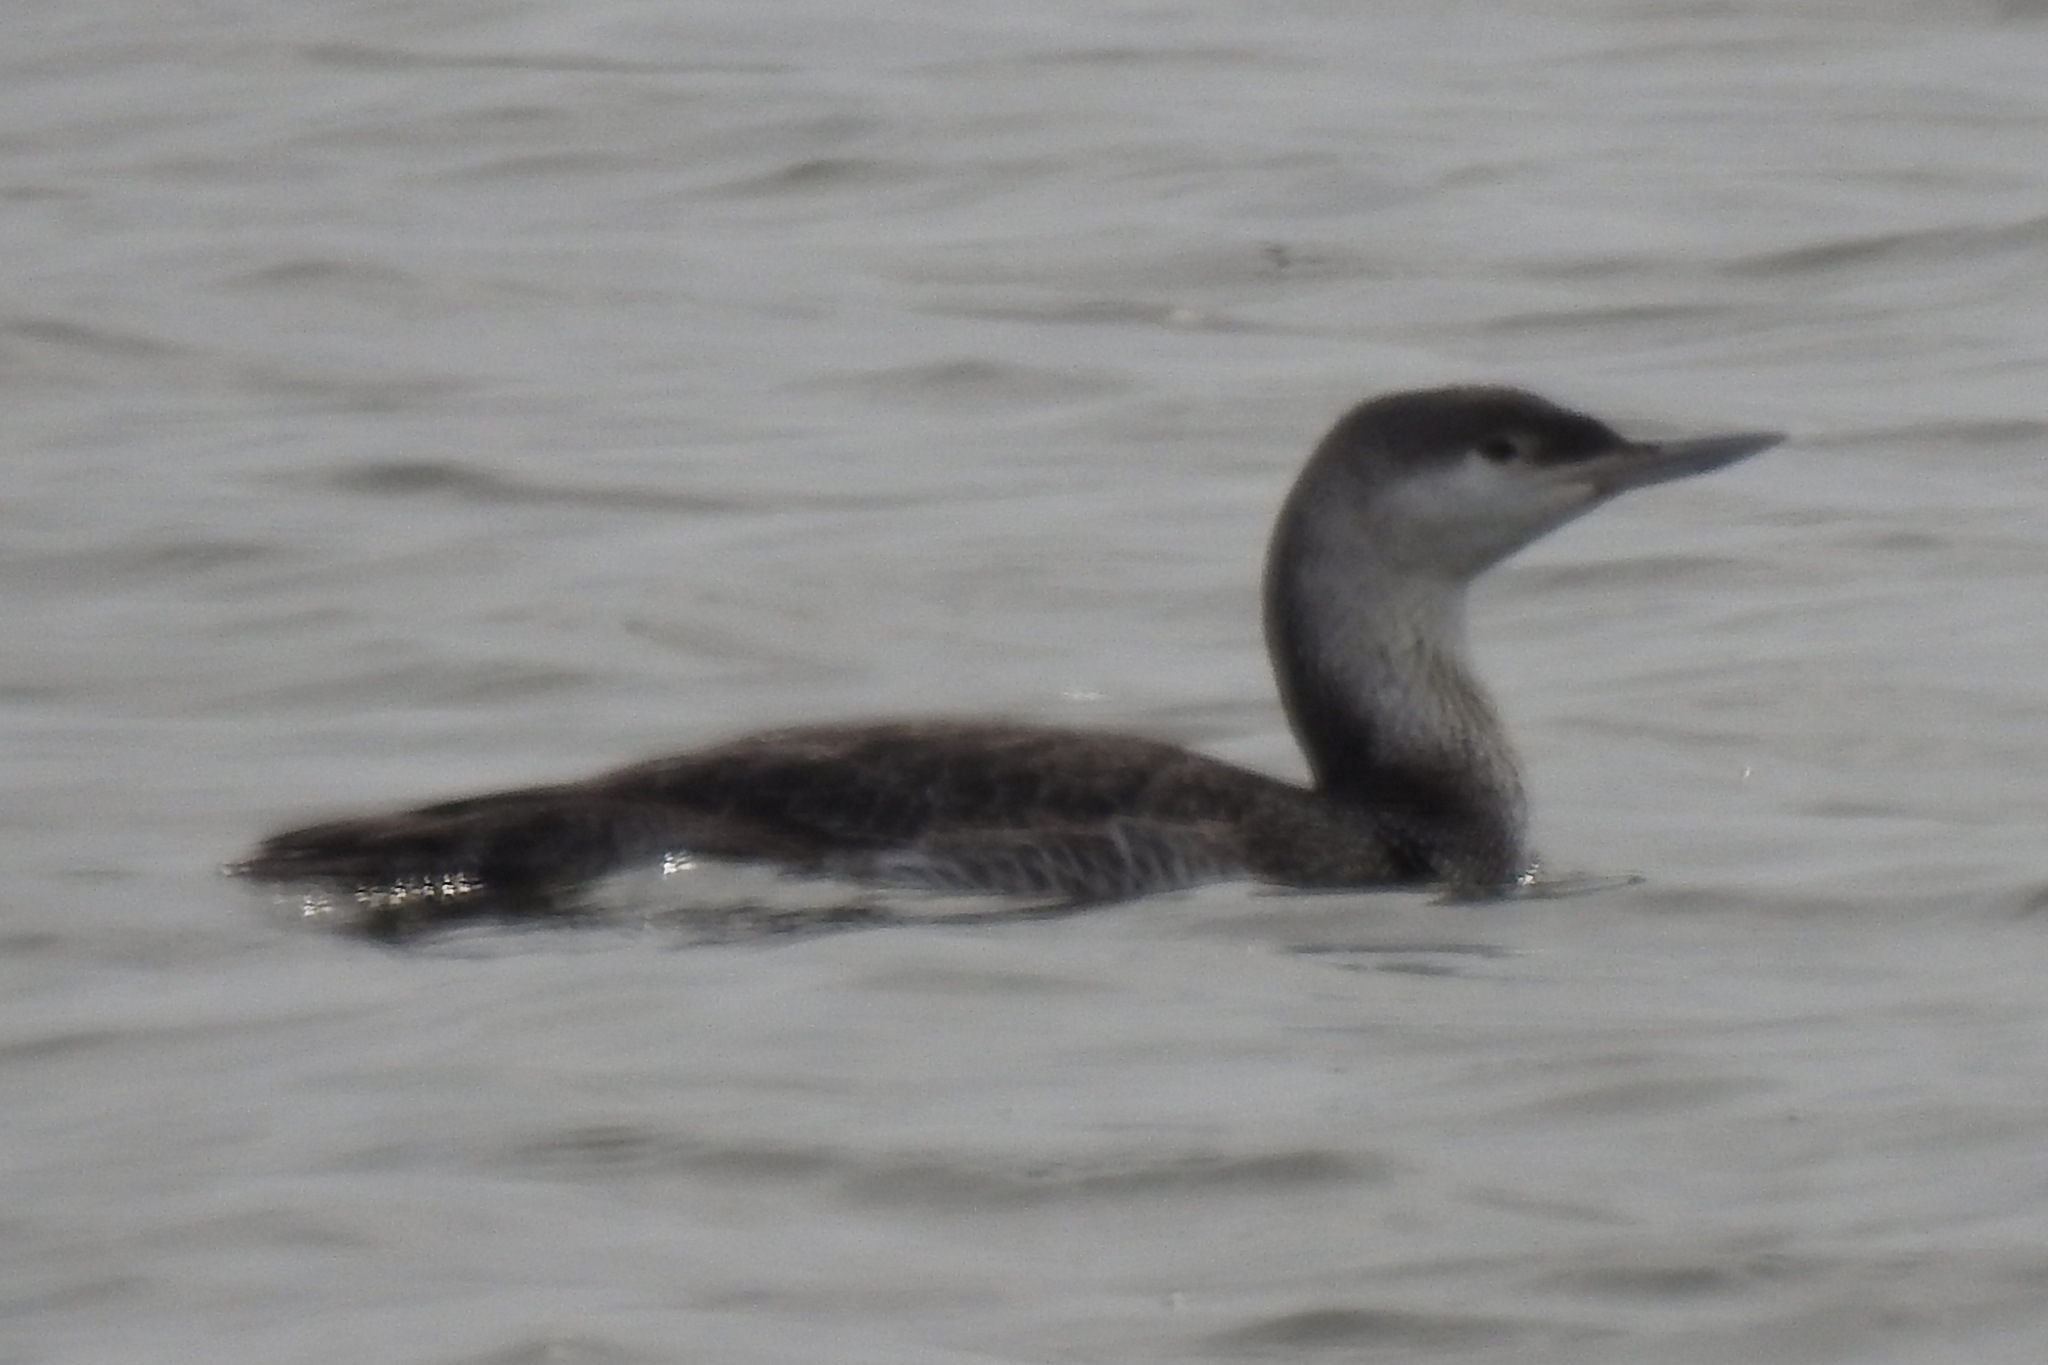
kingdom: Animalia
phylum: Chordata
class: Aves
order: Gaviiformes
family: Gaviidae
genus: Gavia
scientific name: Gavia stellata
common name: Red-throated loon
